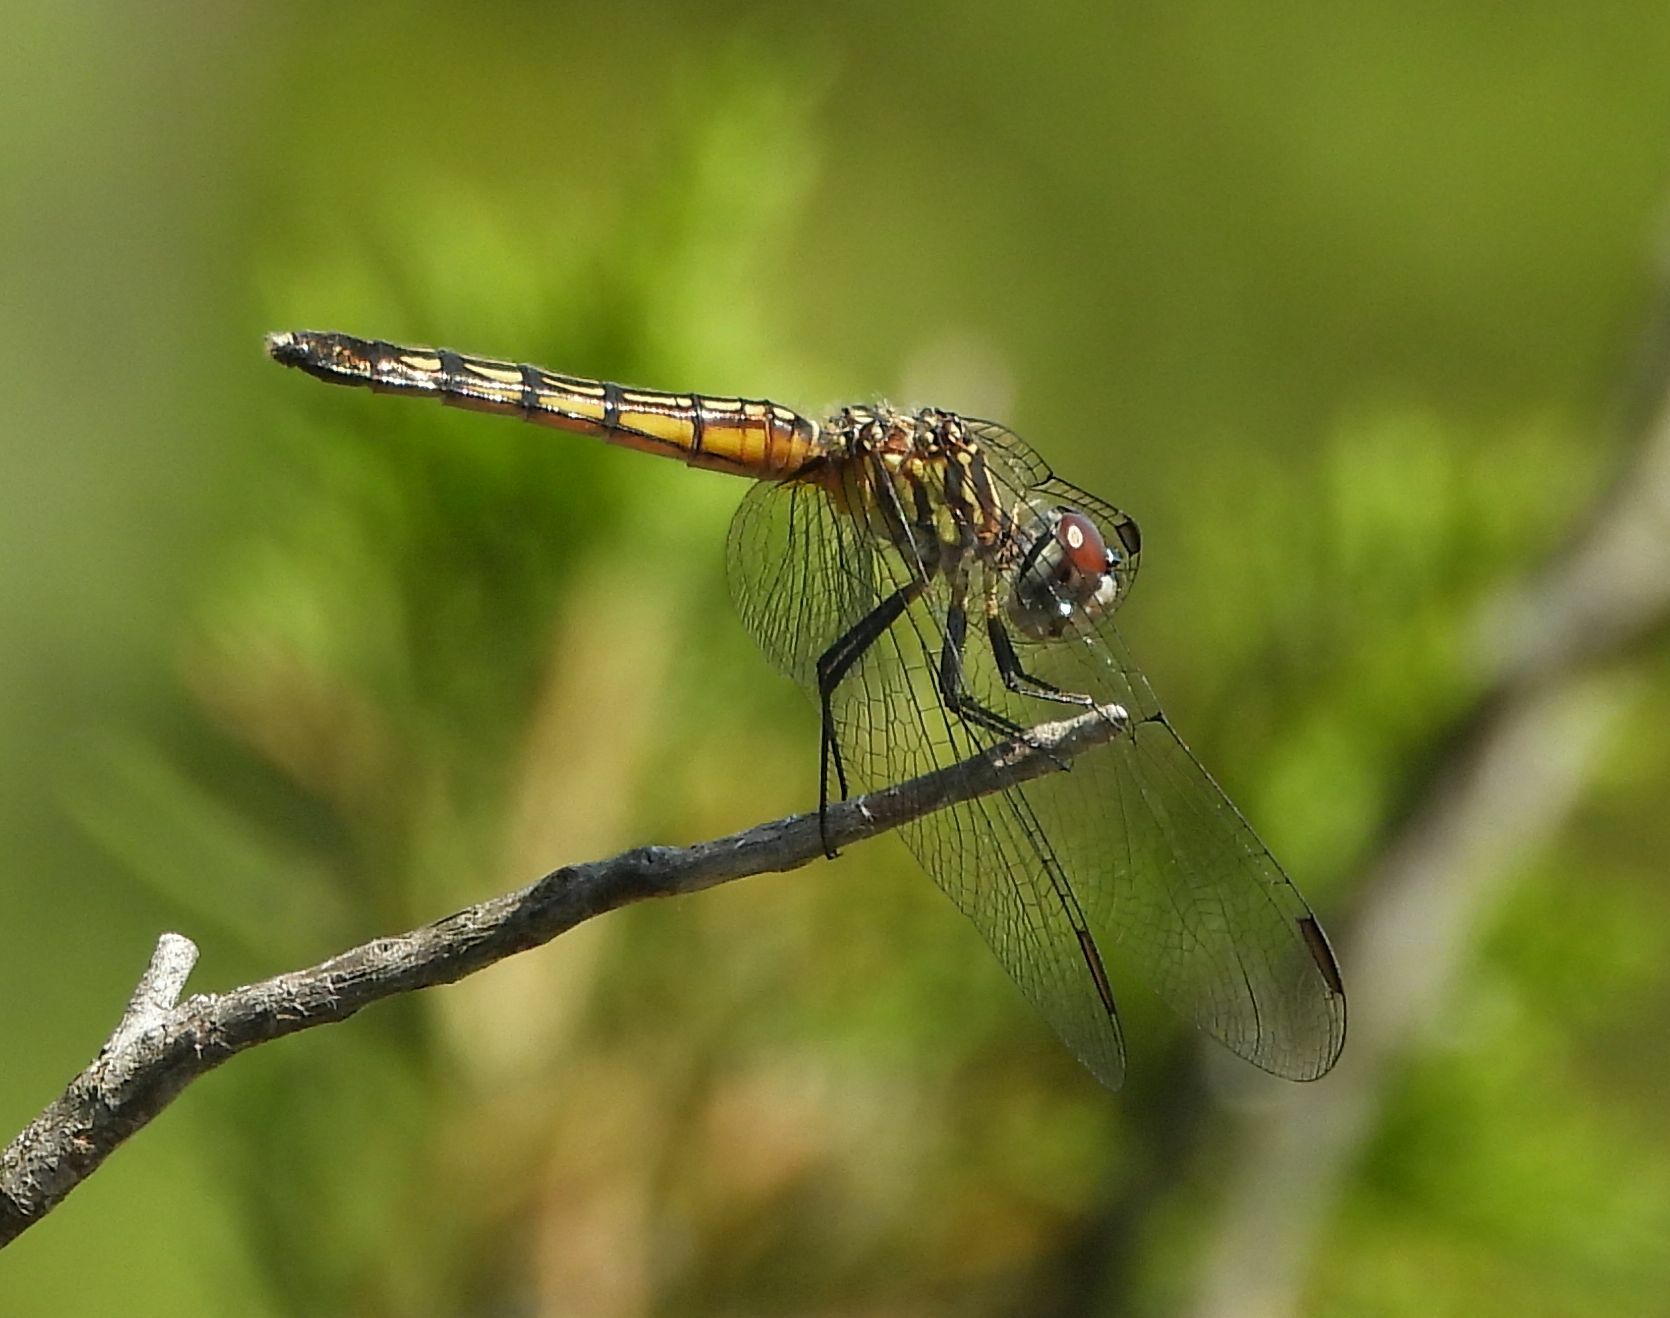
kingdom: Animalia
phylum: Arthropoda
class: Insecta
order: Odonata
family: Libellulidae
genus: Pachydiplax
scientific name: Pachydiplax longipennis
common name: Blue dasher
